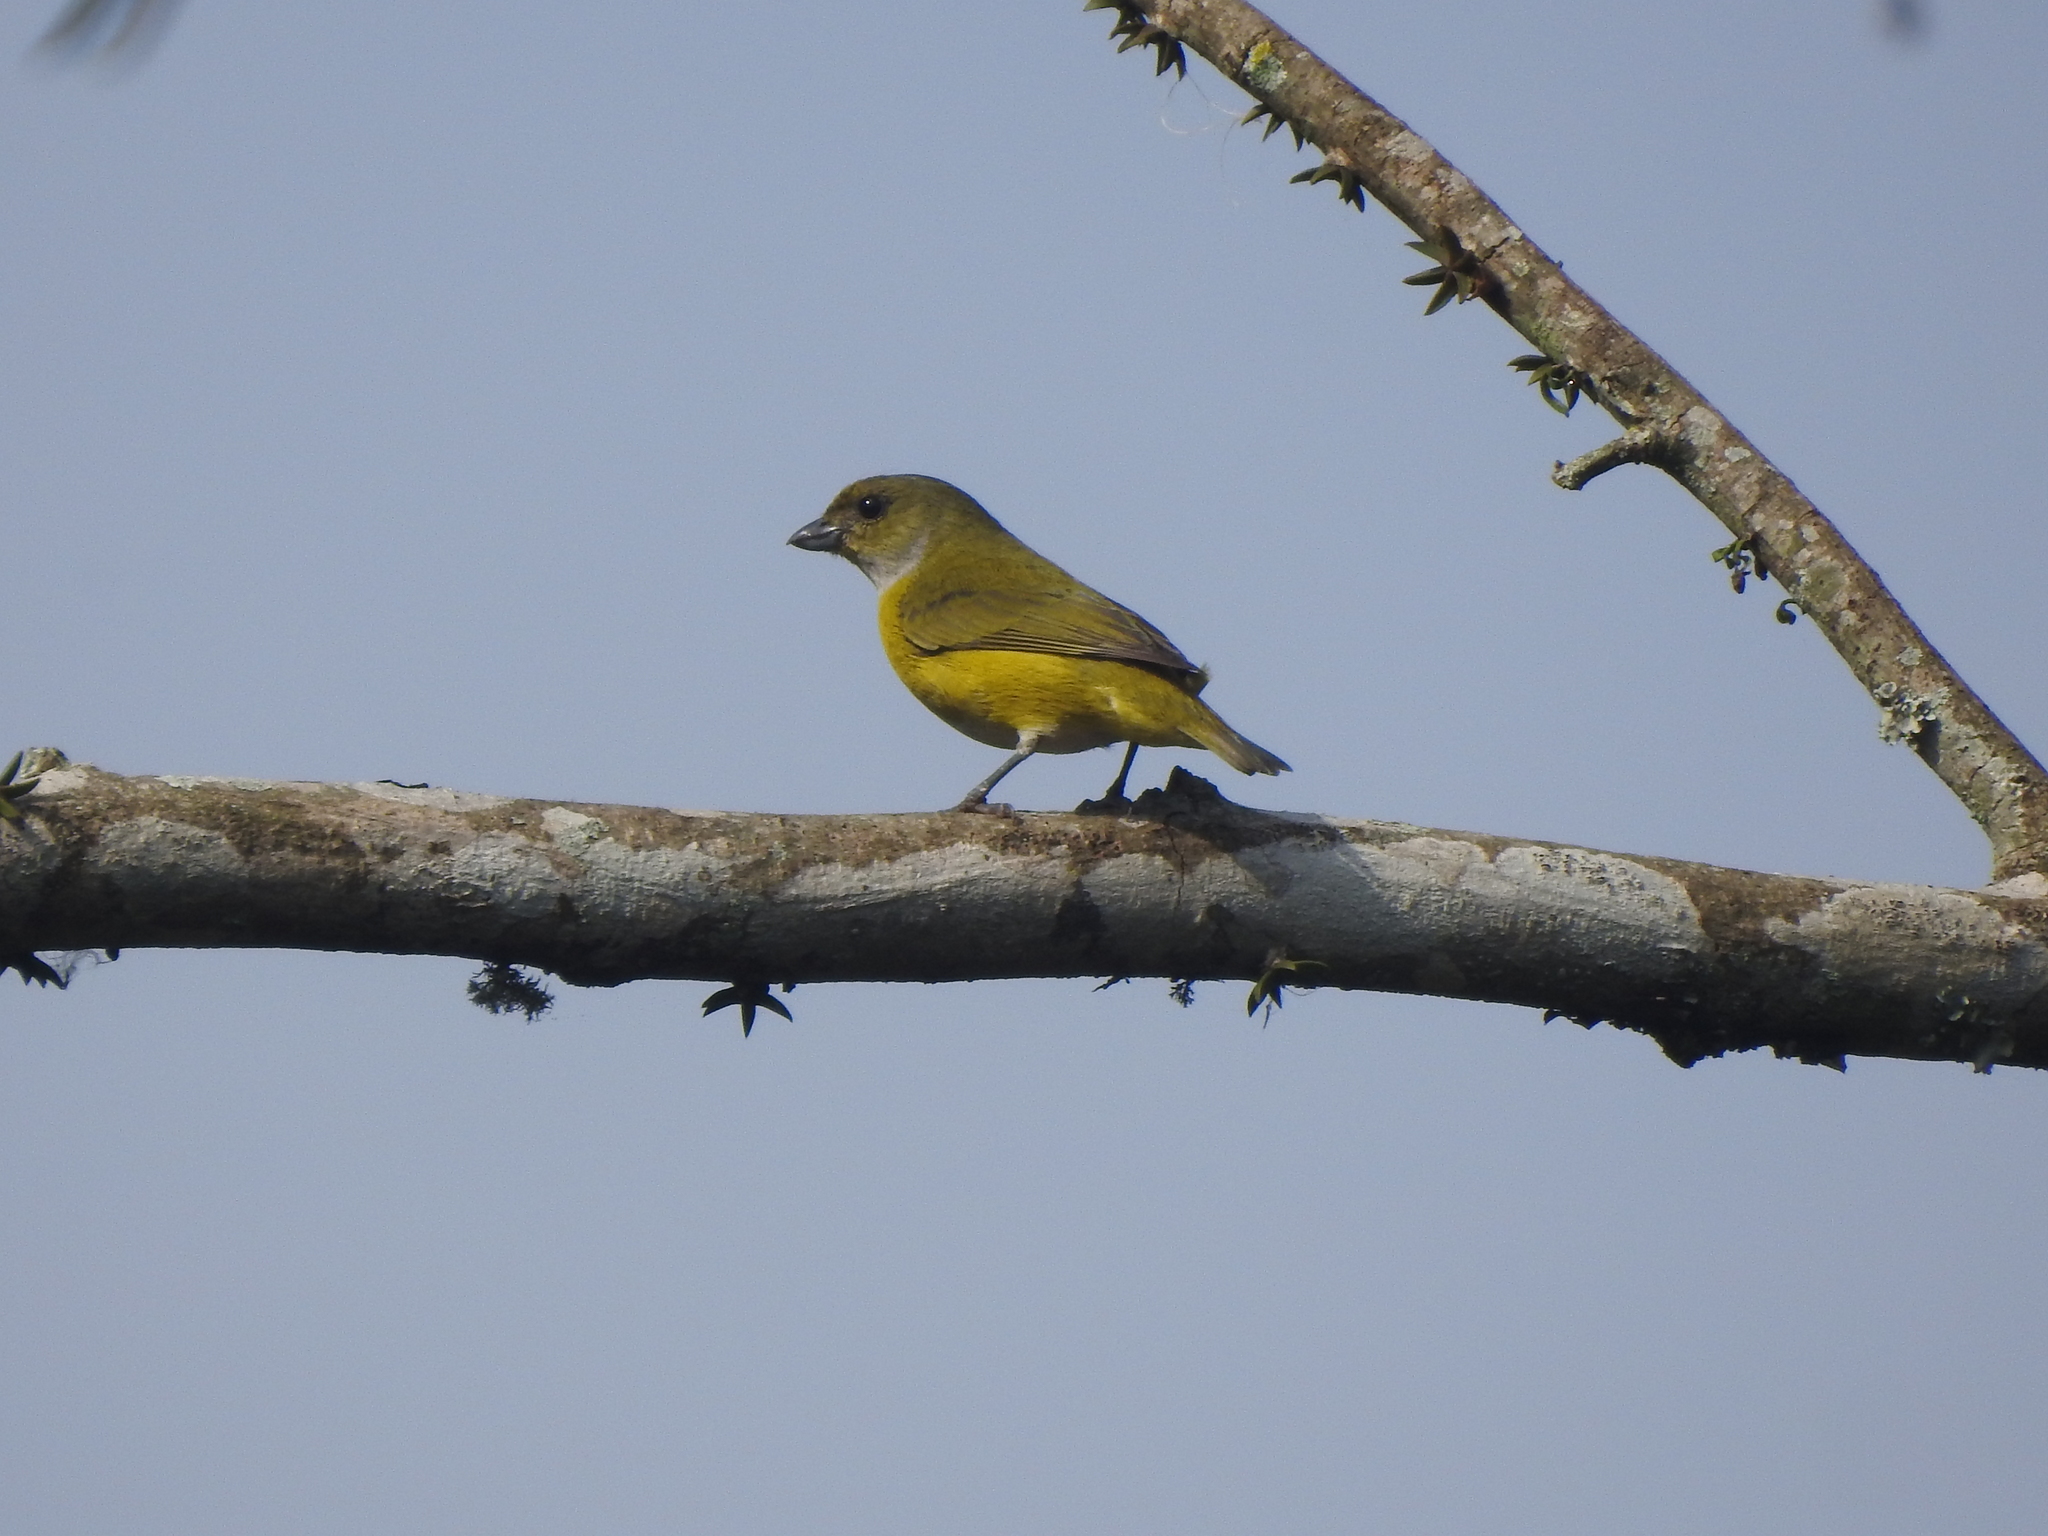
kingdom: Animalia
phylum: Chordata
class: Aves
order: Passeriformes
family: Fringillidae
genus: Euphonia
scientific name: Euphonia hirundinacea
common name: Yellow-throated euphonia
